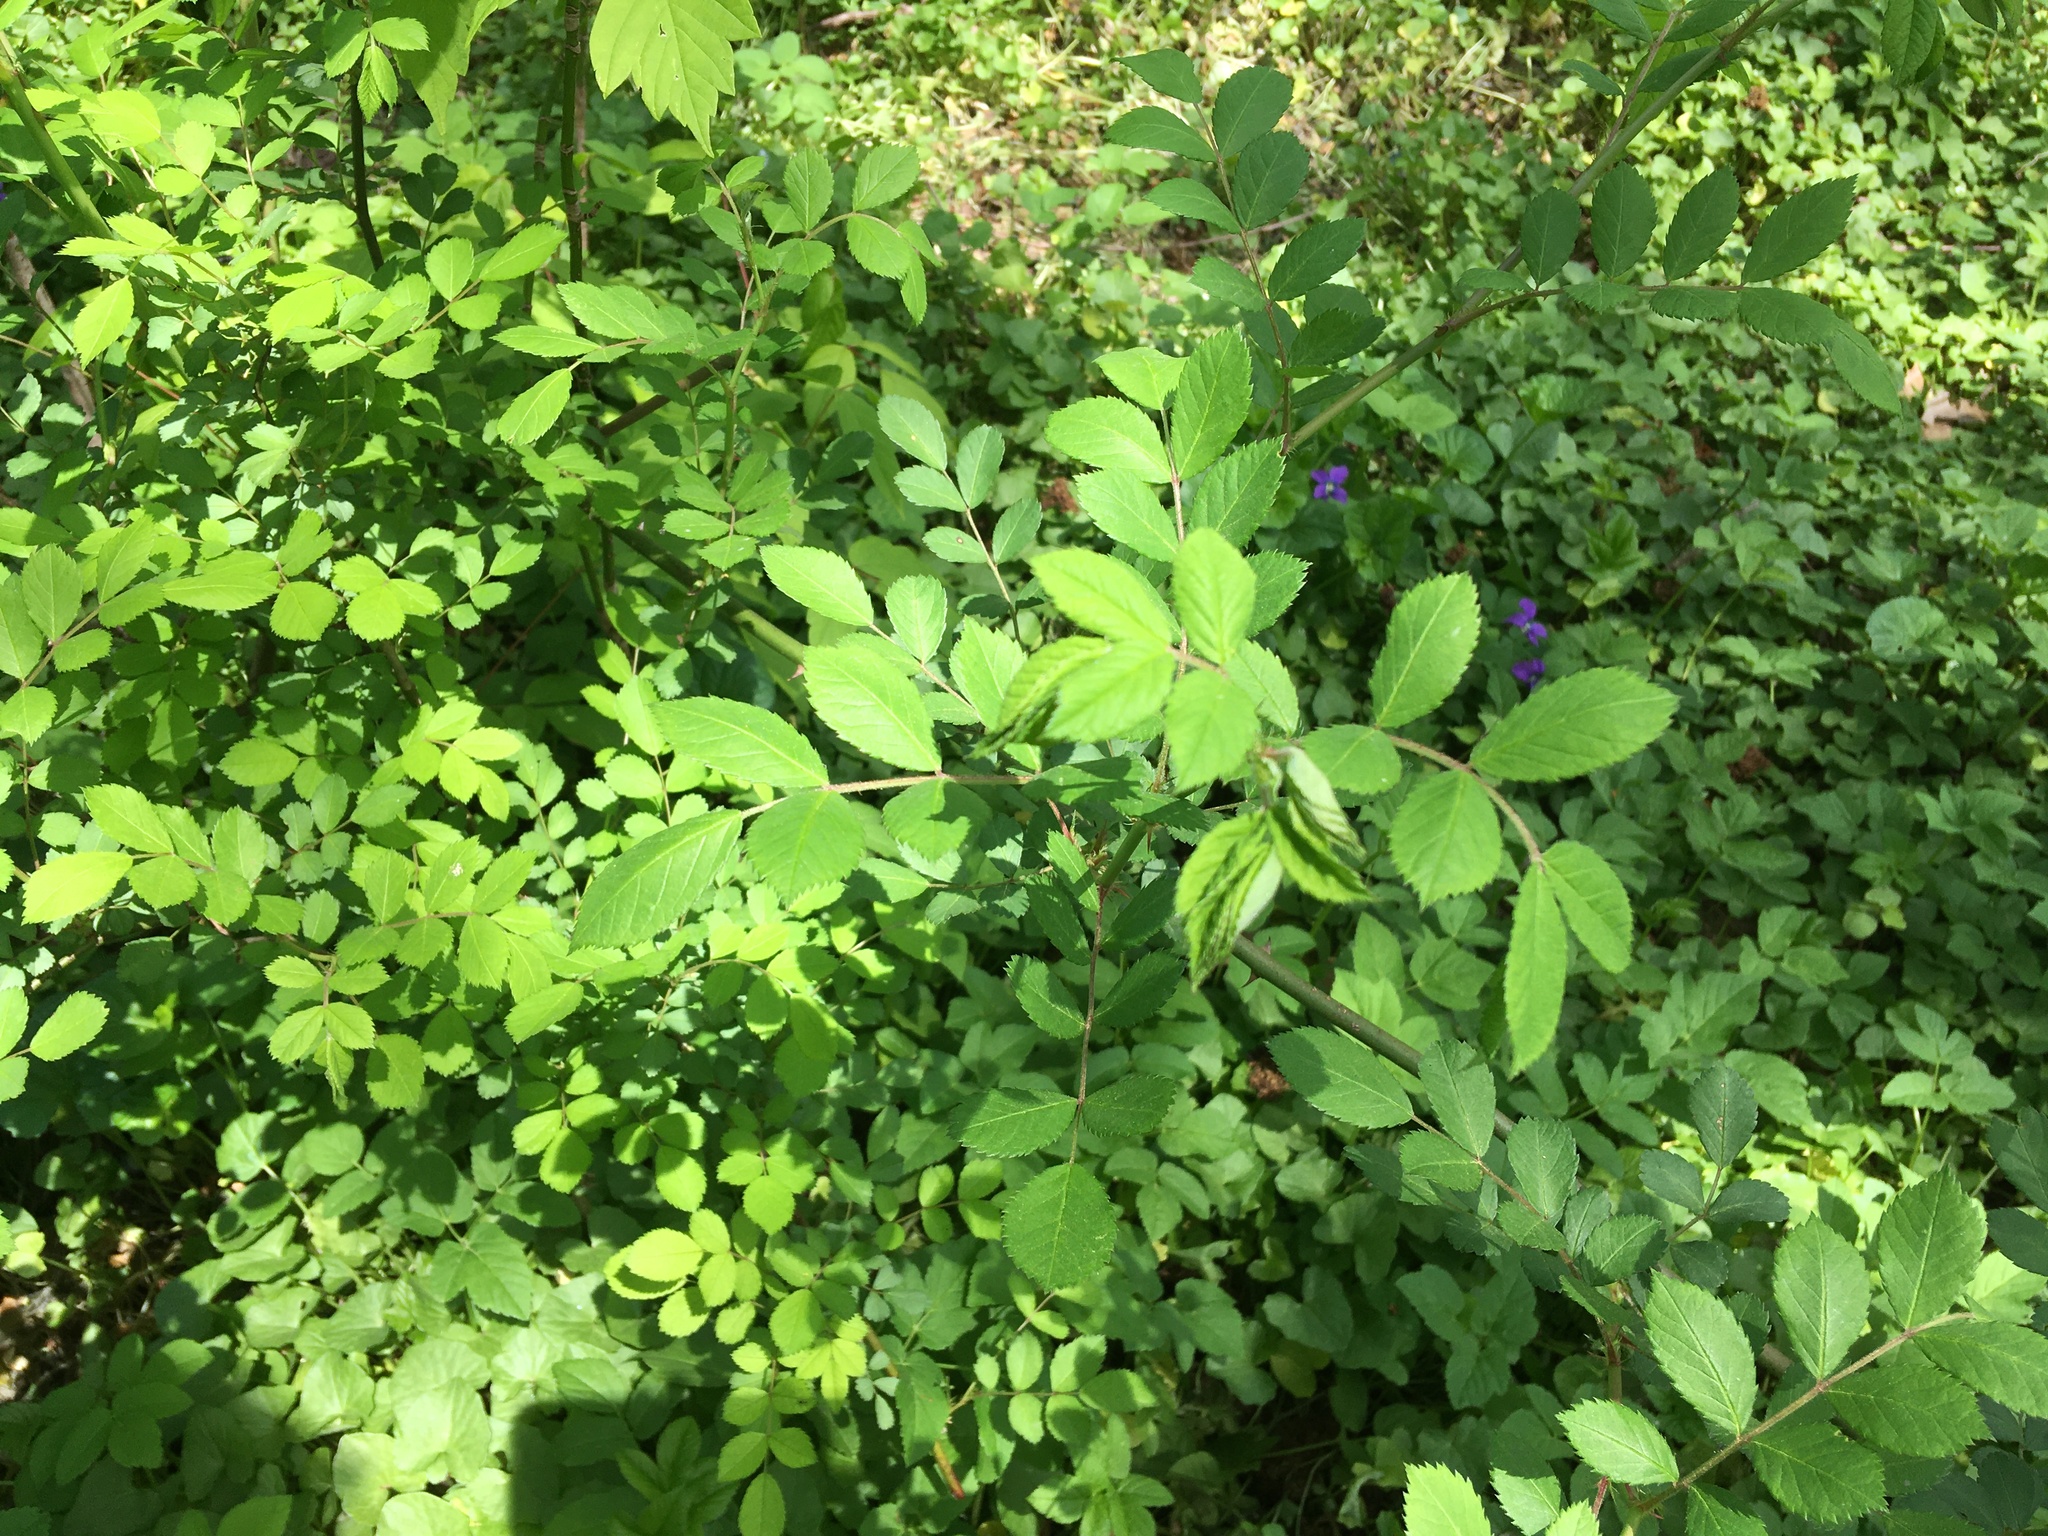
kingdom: Plantae
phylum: Tracheophyta
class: Magnoliopsida
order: Rosales
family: Rosaceae
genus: Rosa
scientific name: Rosa multiflora
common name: Multiflora rose
